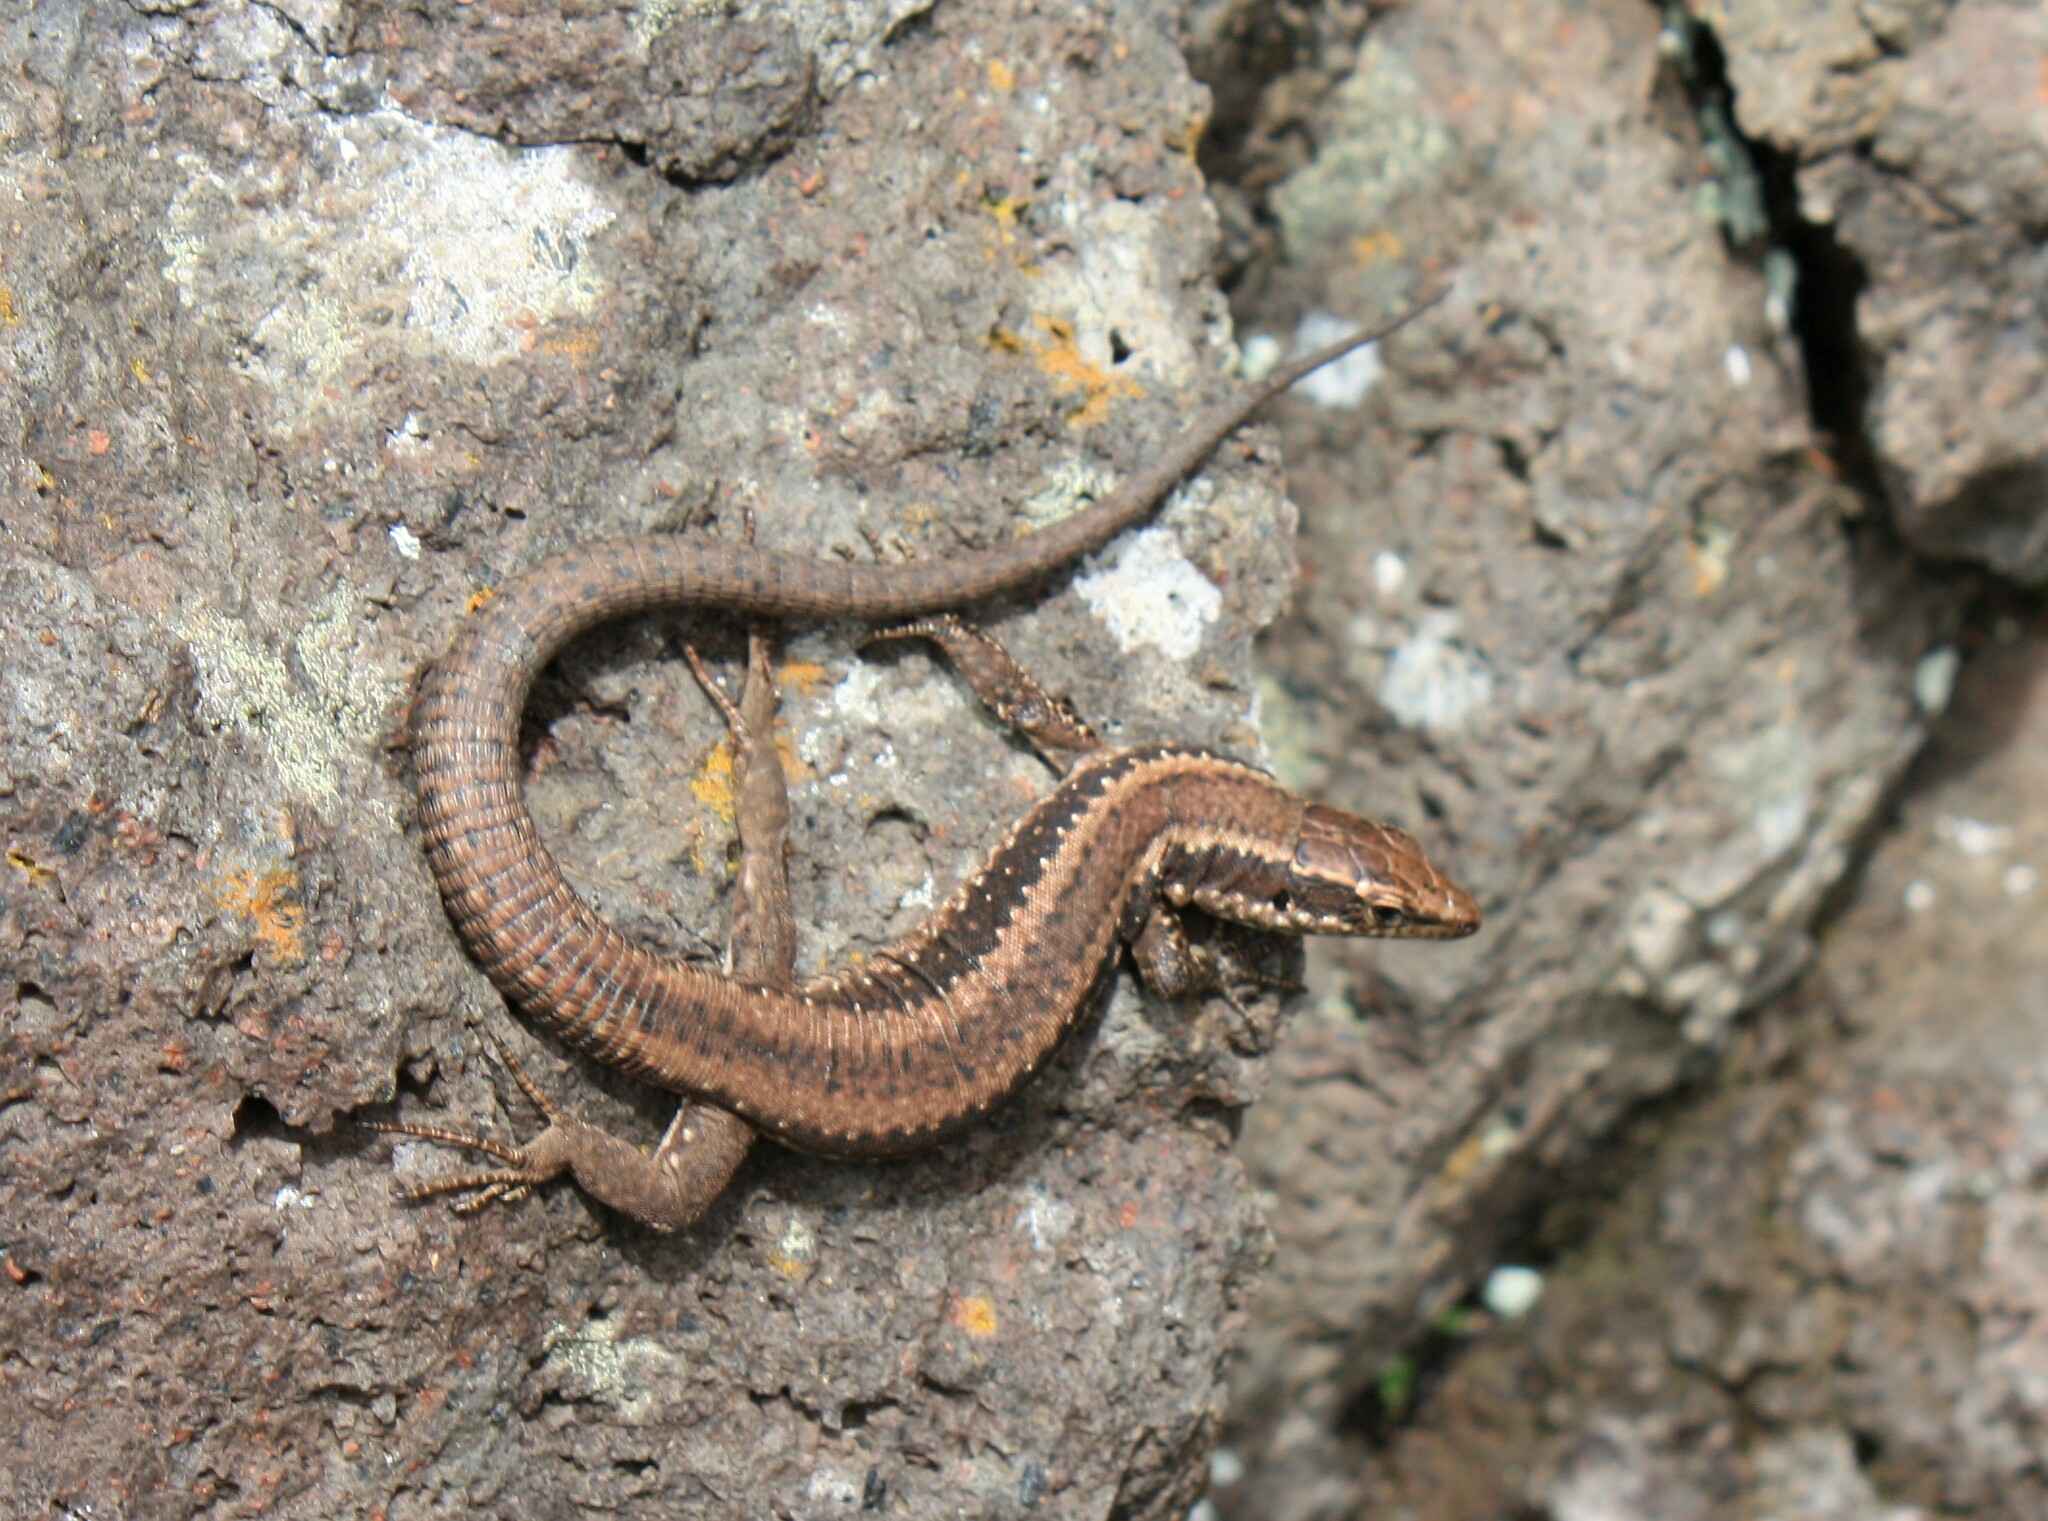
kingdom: Animalia
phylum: Chordata
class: Squamata
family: Lacertidae
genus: Teira
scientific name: Teira dugesii
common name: Madeira lizard
